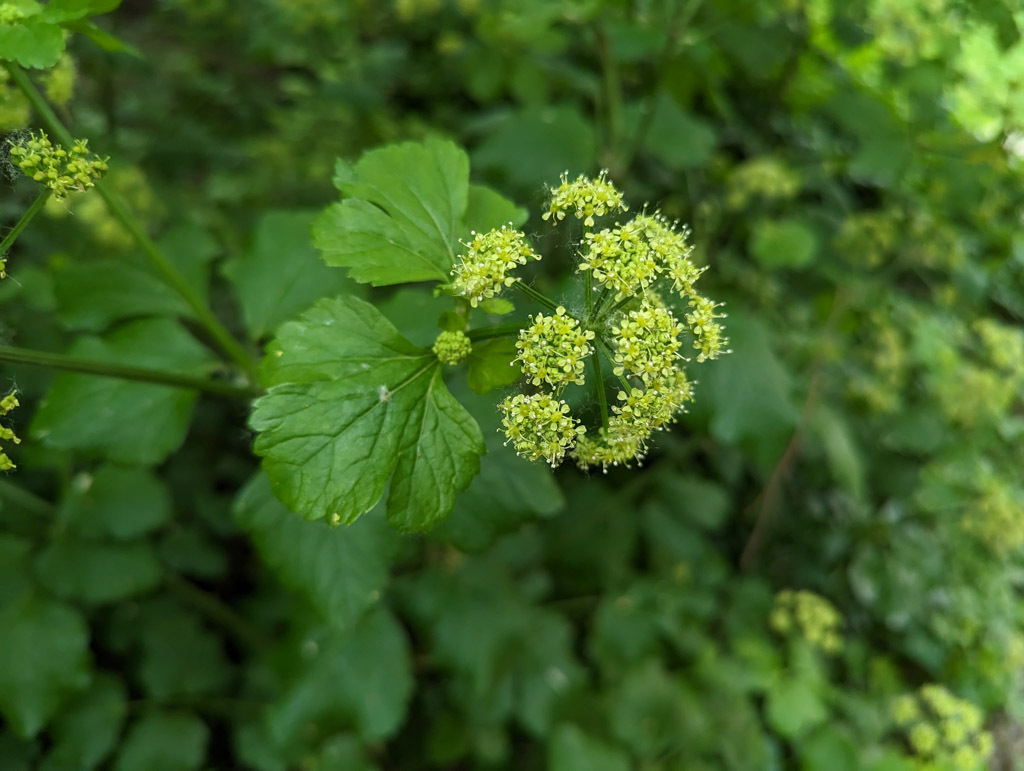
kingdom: Plantae
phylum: Tracheophyta
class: Magnoliopsida
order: Apiales
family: Apiaceae
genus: Smyrnium
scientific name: Smyrnium olusatrum
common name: Alexanders
